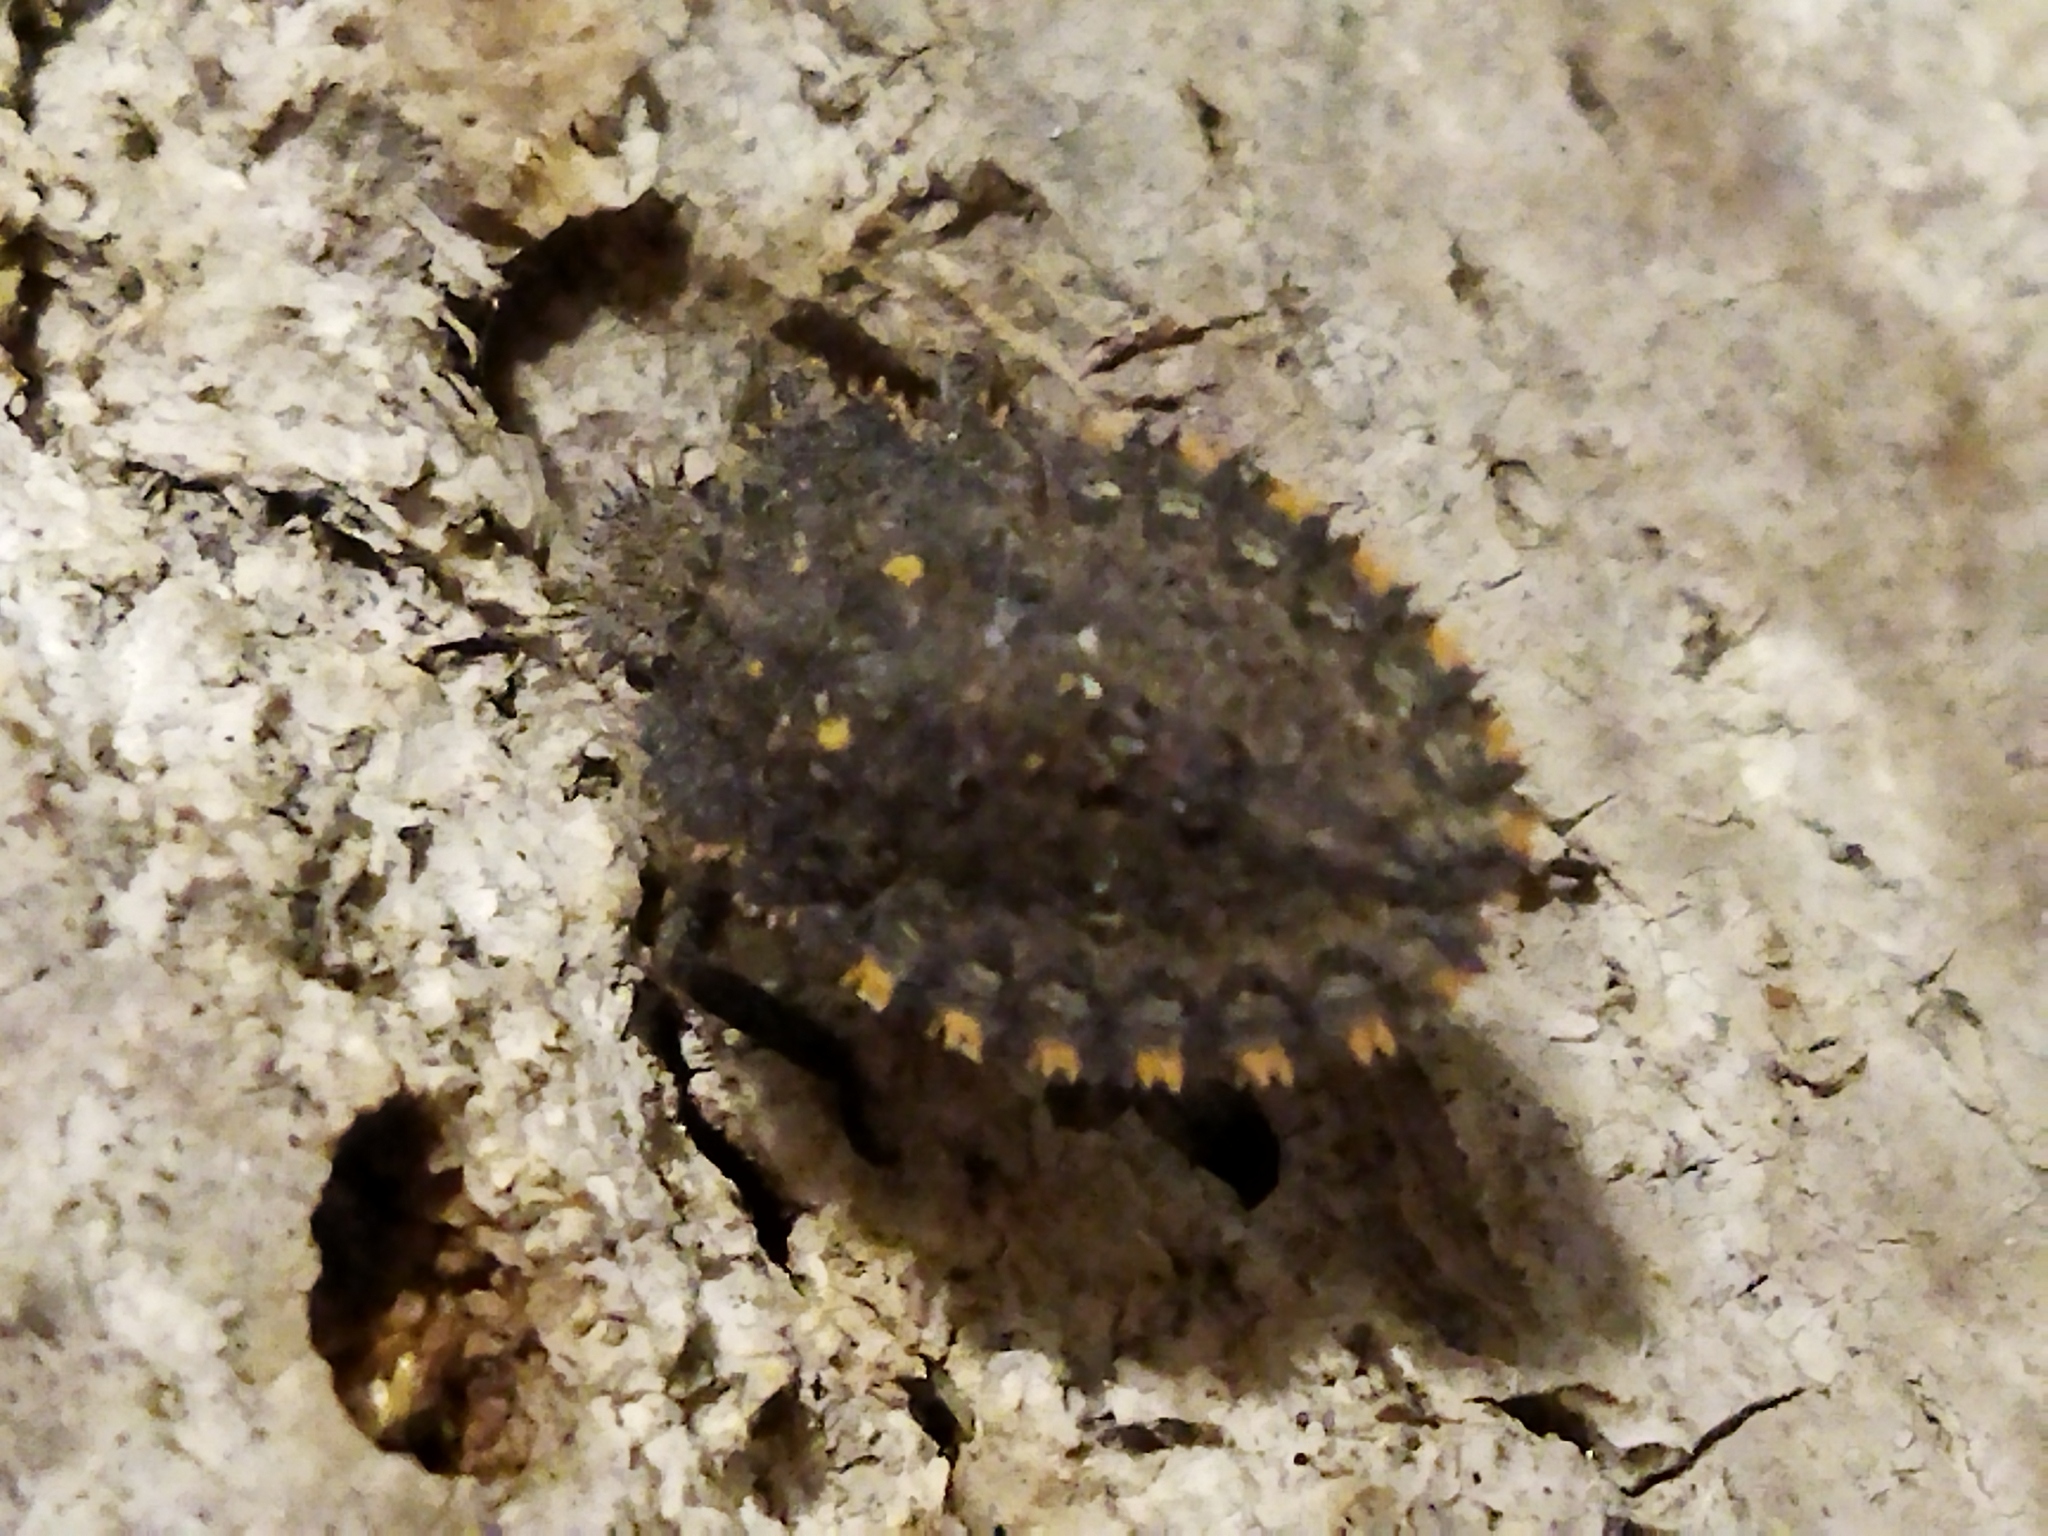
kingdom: Animalia
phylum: Arthropoda
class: Insecta
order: Hemiptera
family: Pentatomidae
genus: Mustha
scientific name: Mustha spinosula
